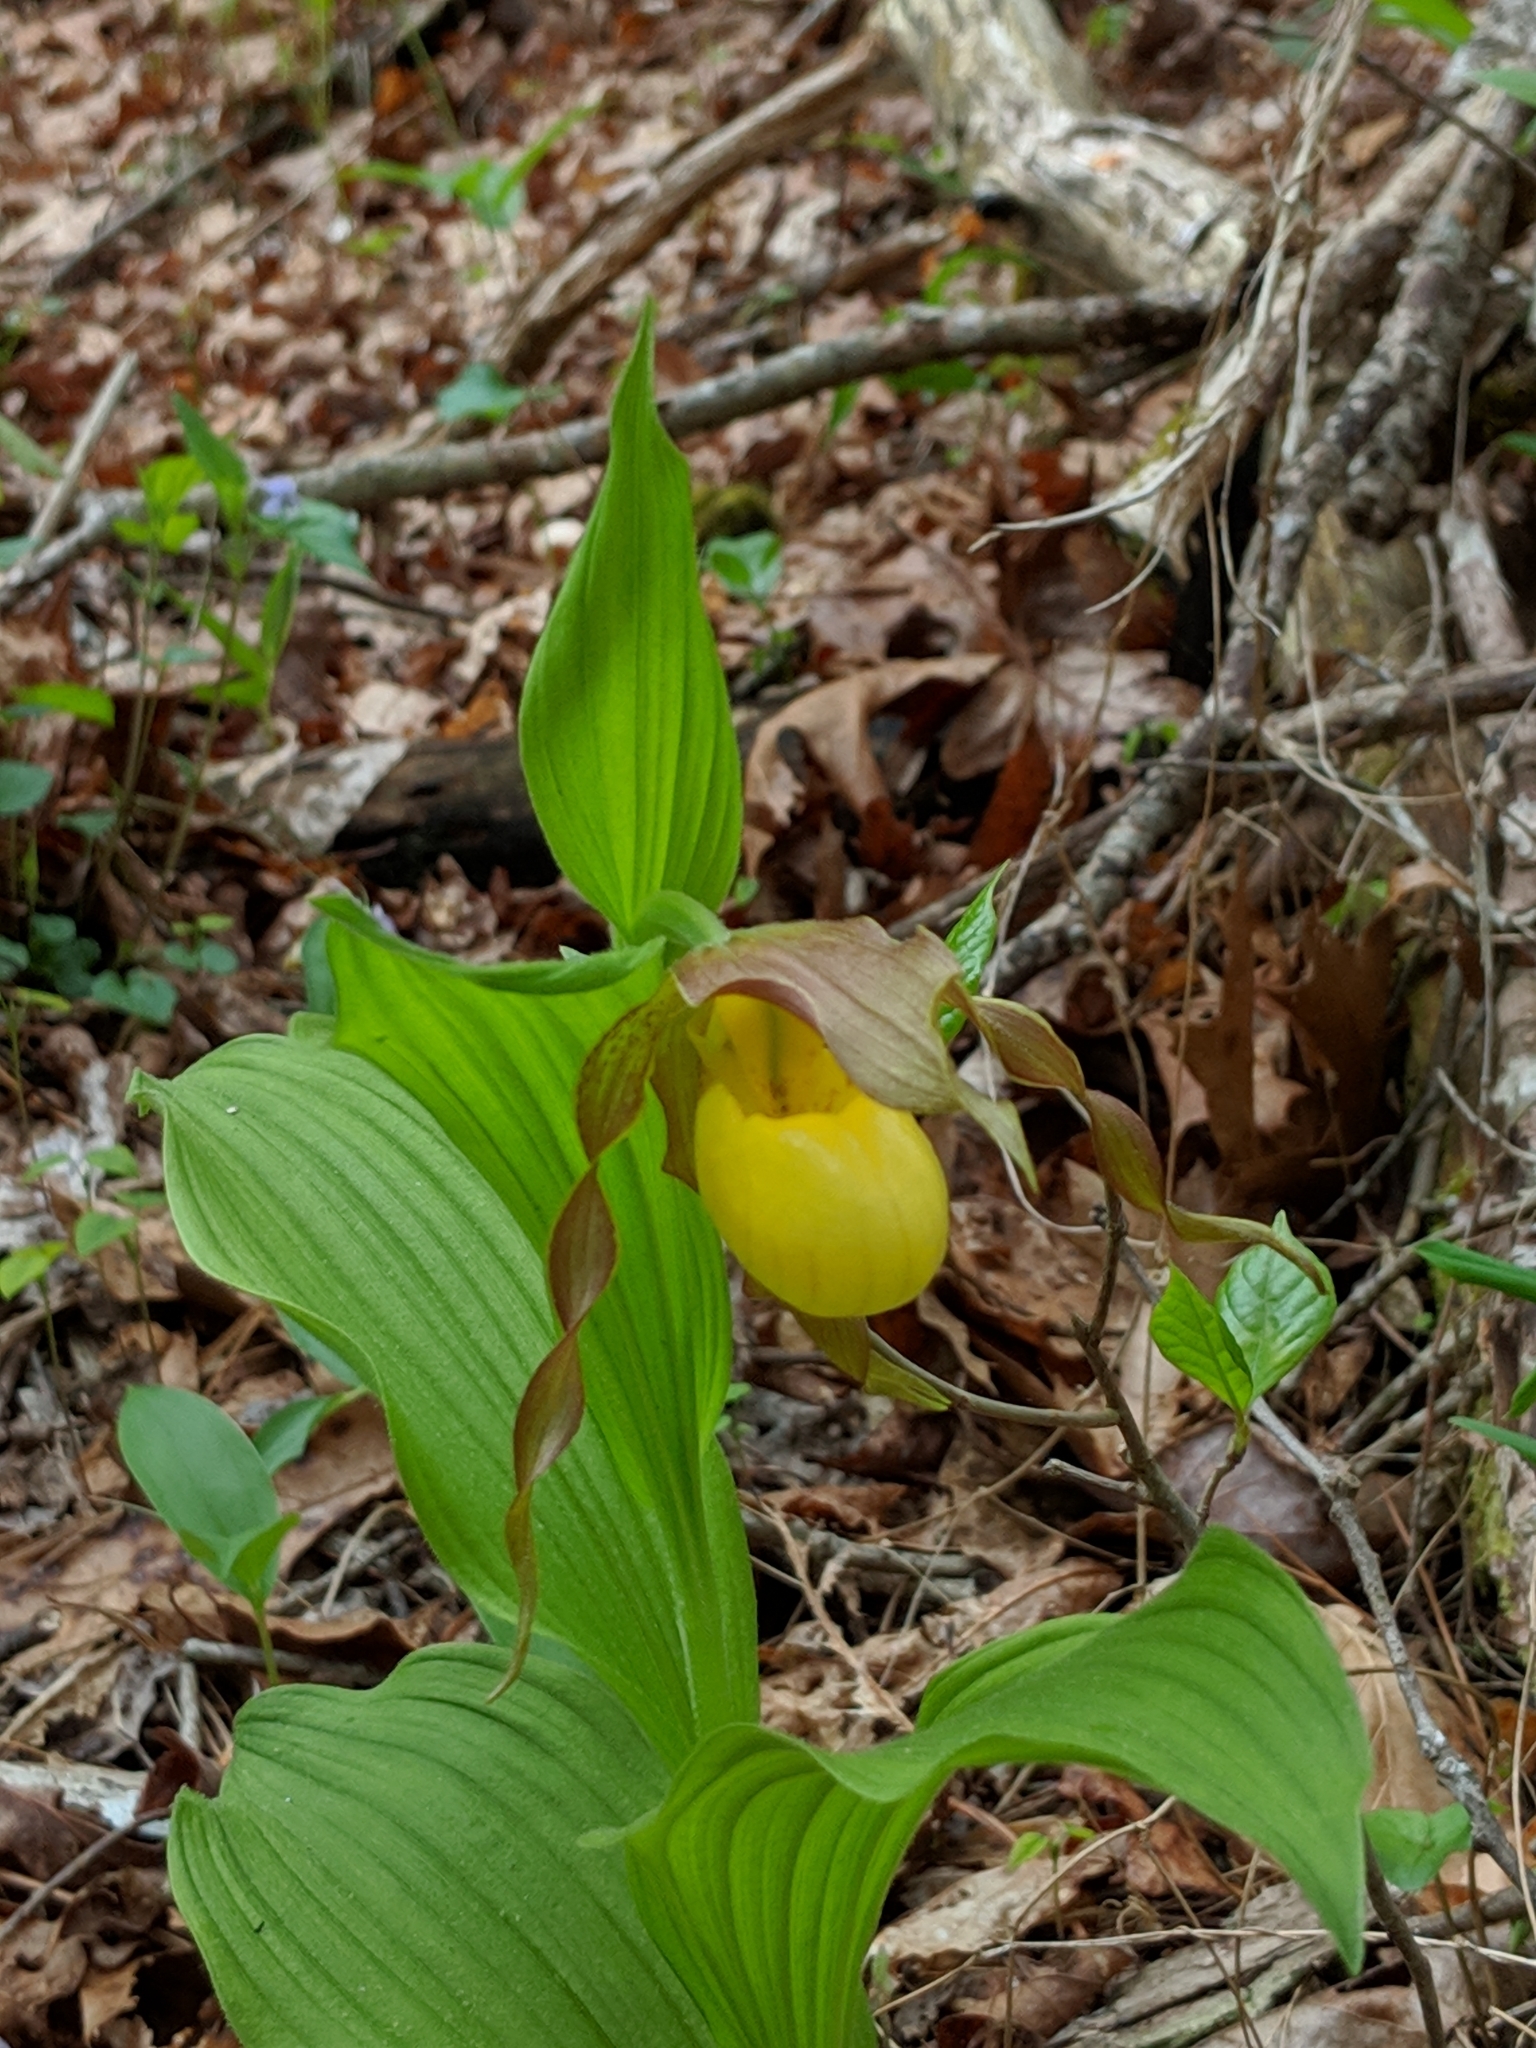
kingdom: Plantae
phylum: Tracheophyta
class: Liliopsida
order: Asparagales
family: Orchidaceae
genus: Cypripedium
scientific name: Cypripedium parviflorum
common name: American yellow lady's-slipper
